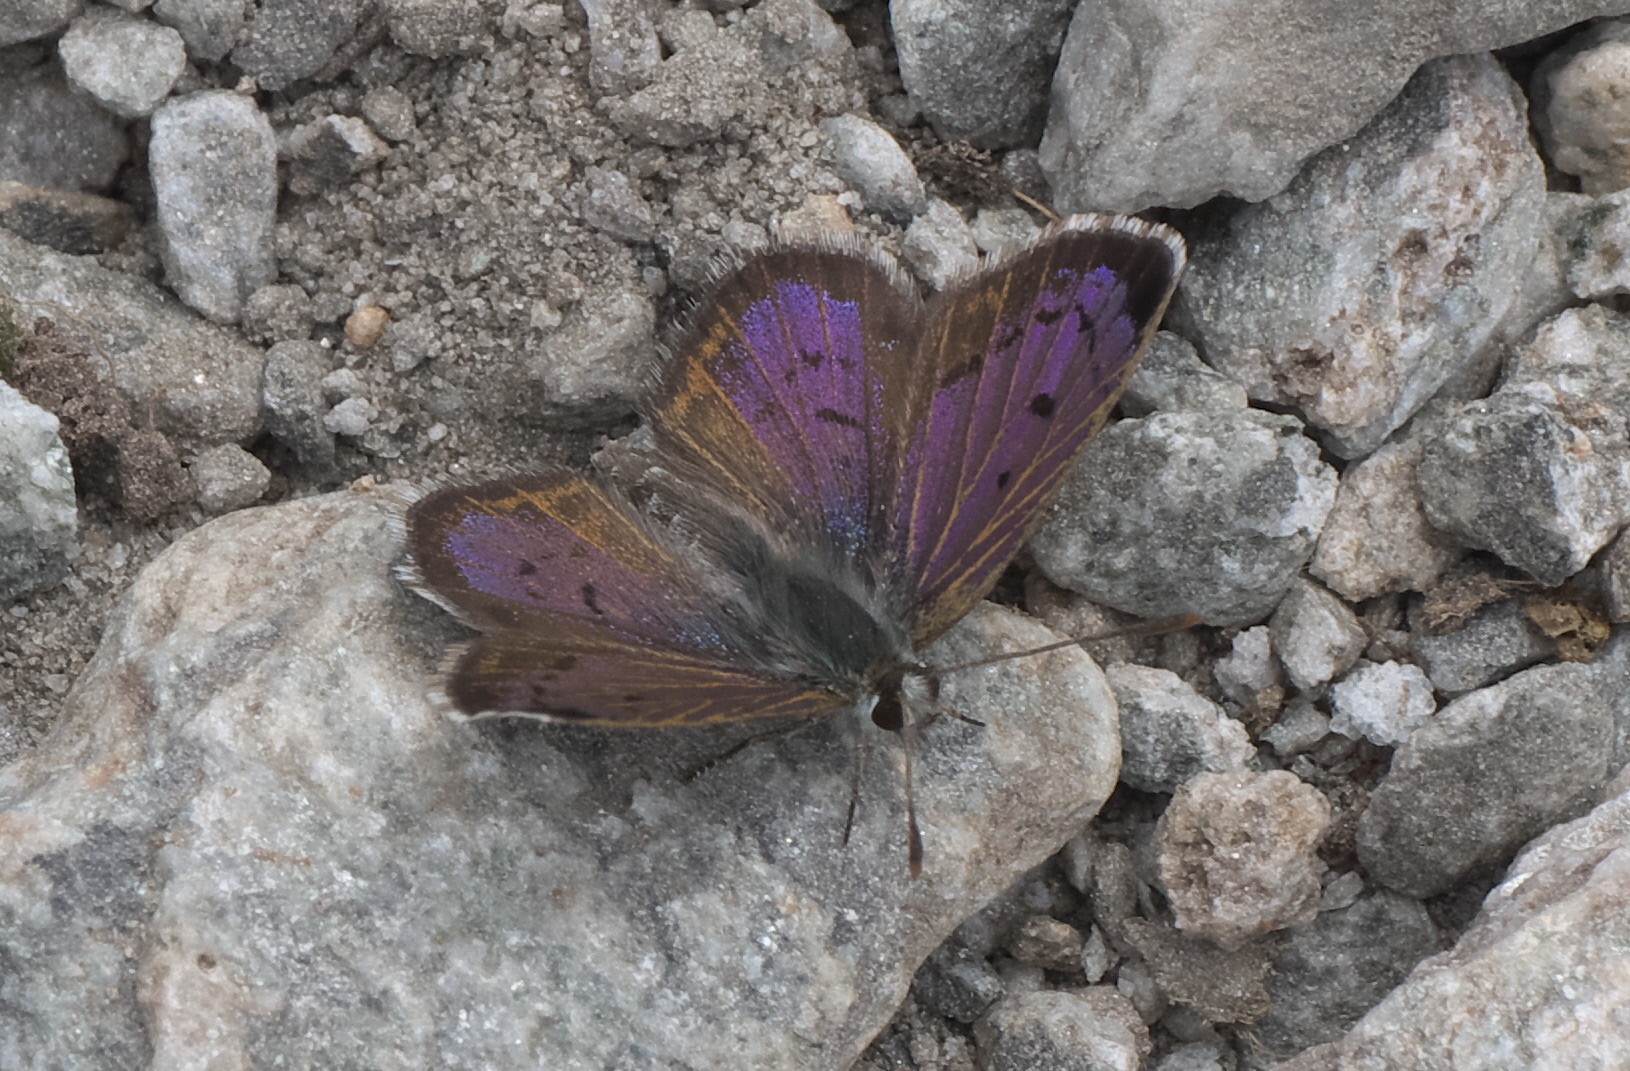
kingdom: Animalia
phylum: Arthropoda
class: Insecta
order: Lepidoptera
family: Lycaenidae
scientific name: Lycaenidae
